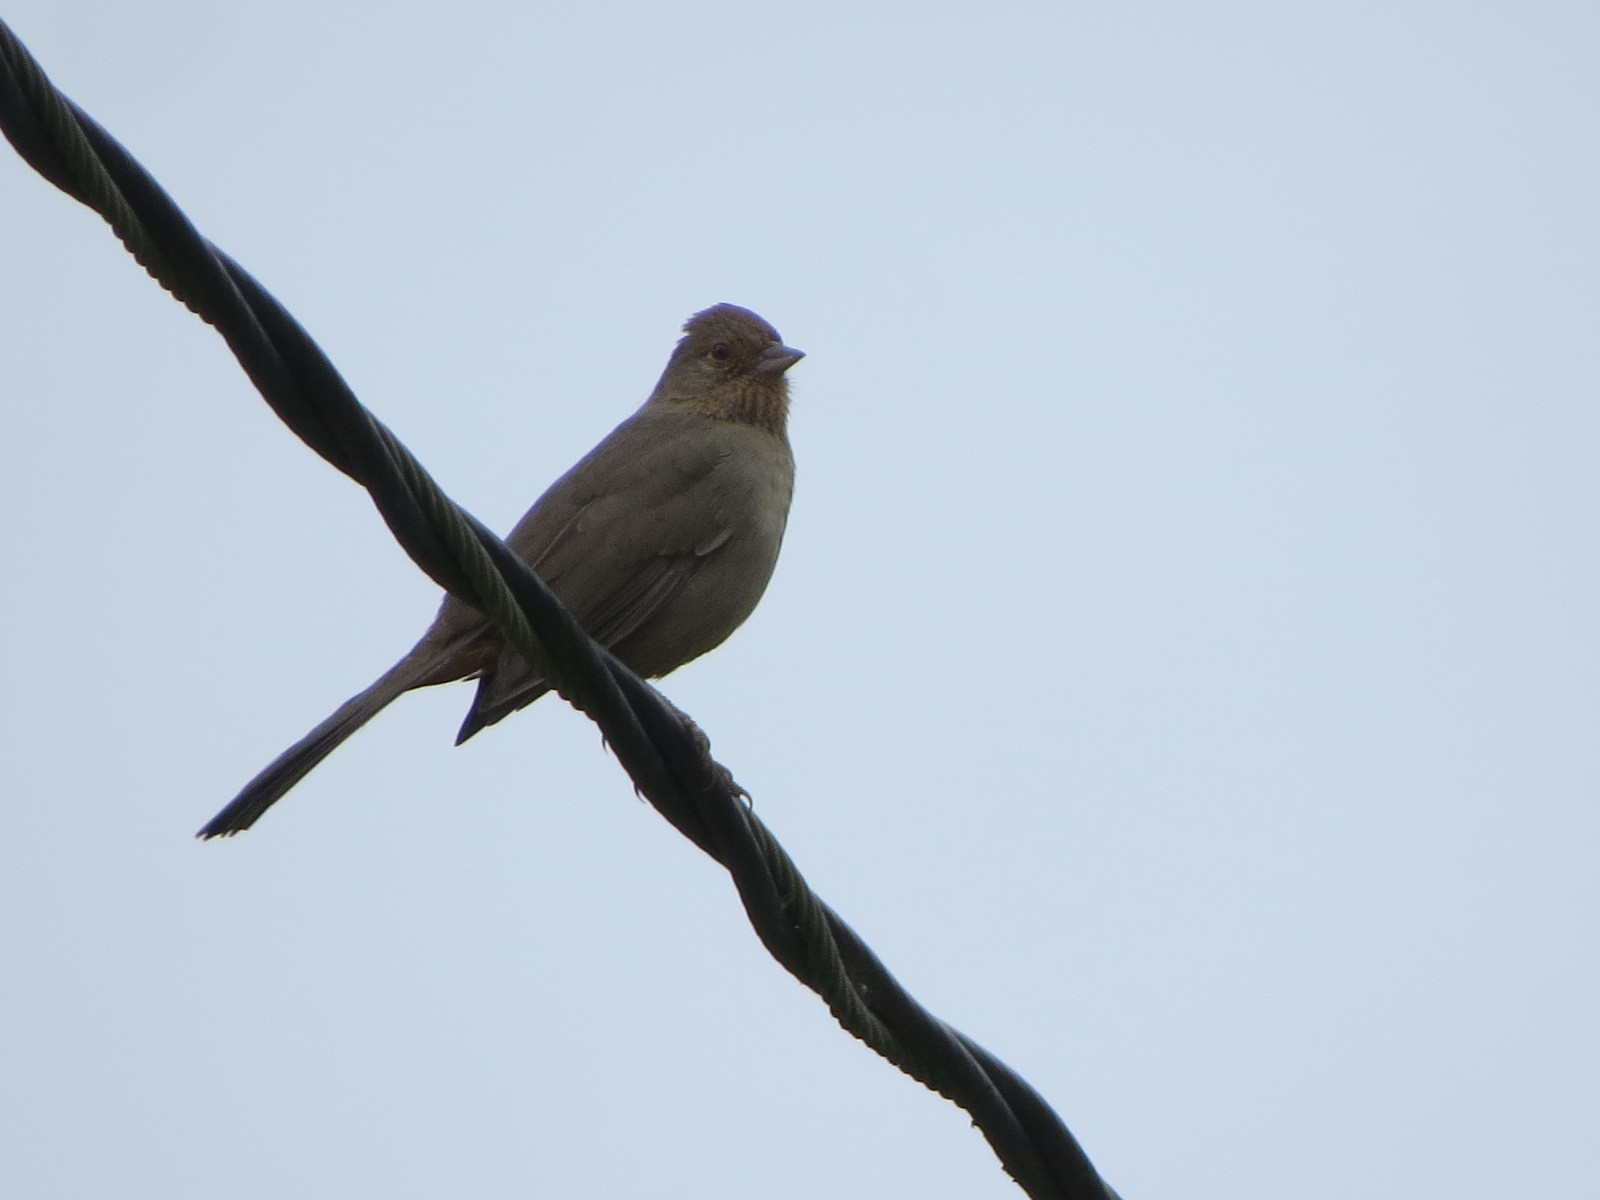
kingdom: Animalia
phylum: Chordata
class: Aves
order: Passeriformes
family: Passerellidae
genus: Melozone
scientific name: Melozone crissalis
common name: California towhee
